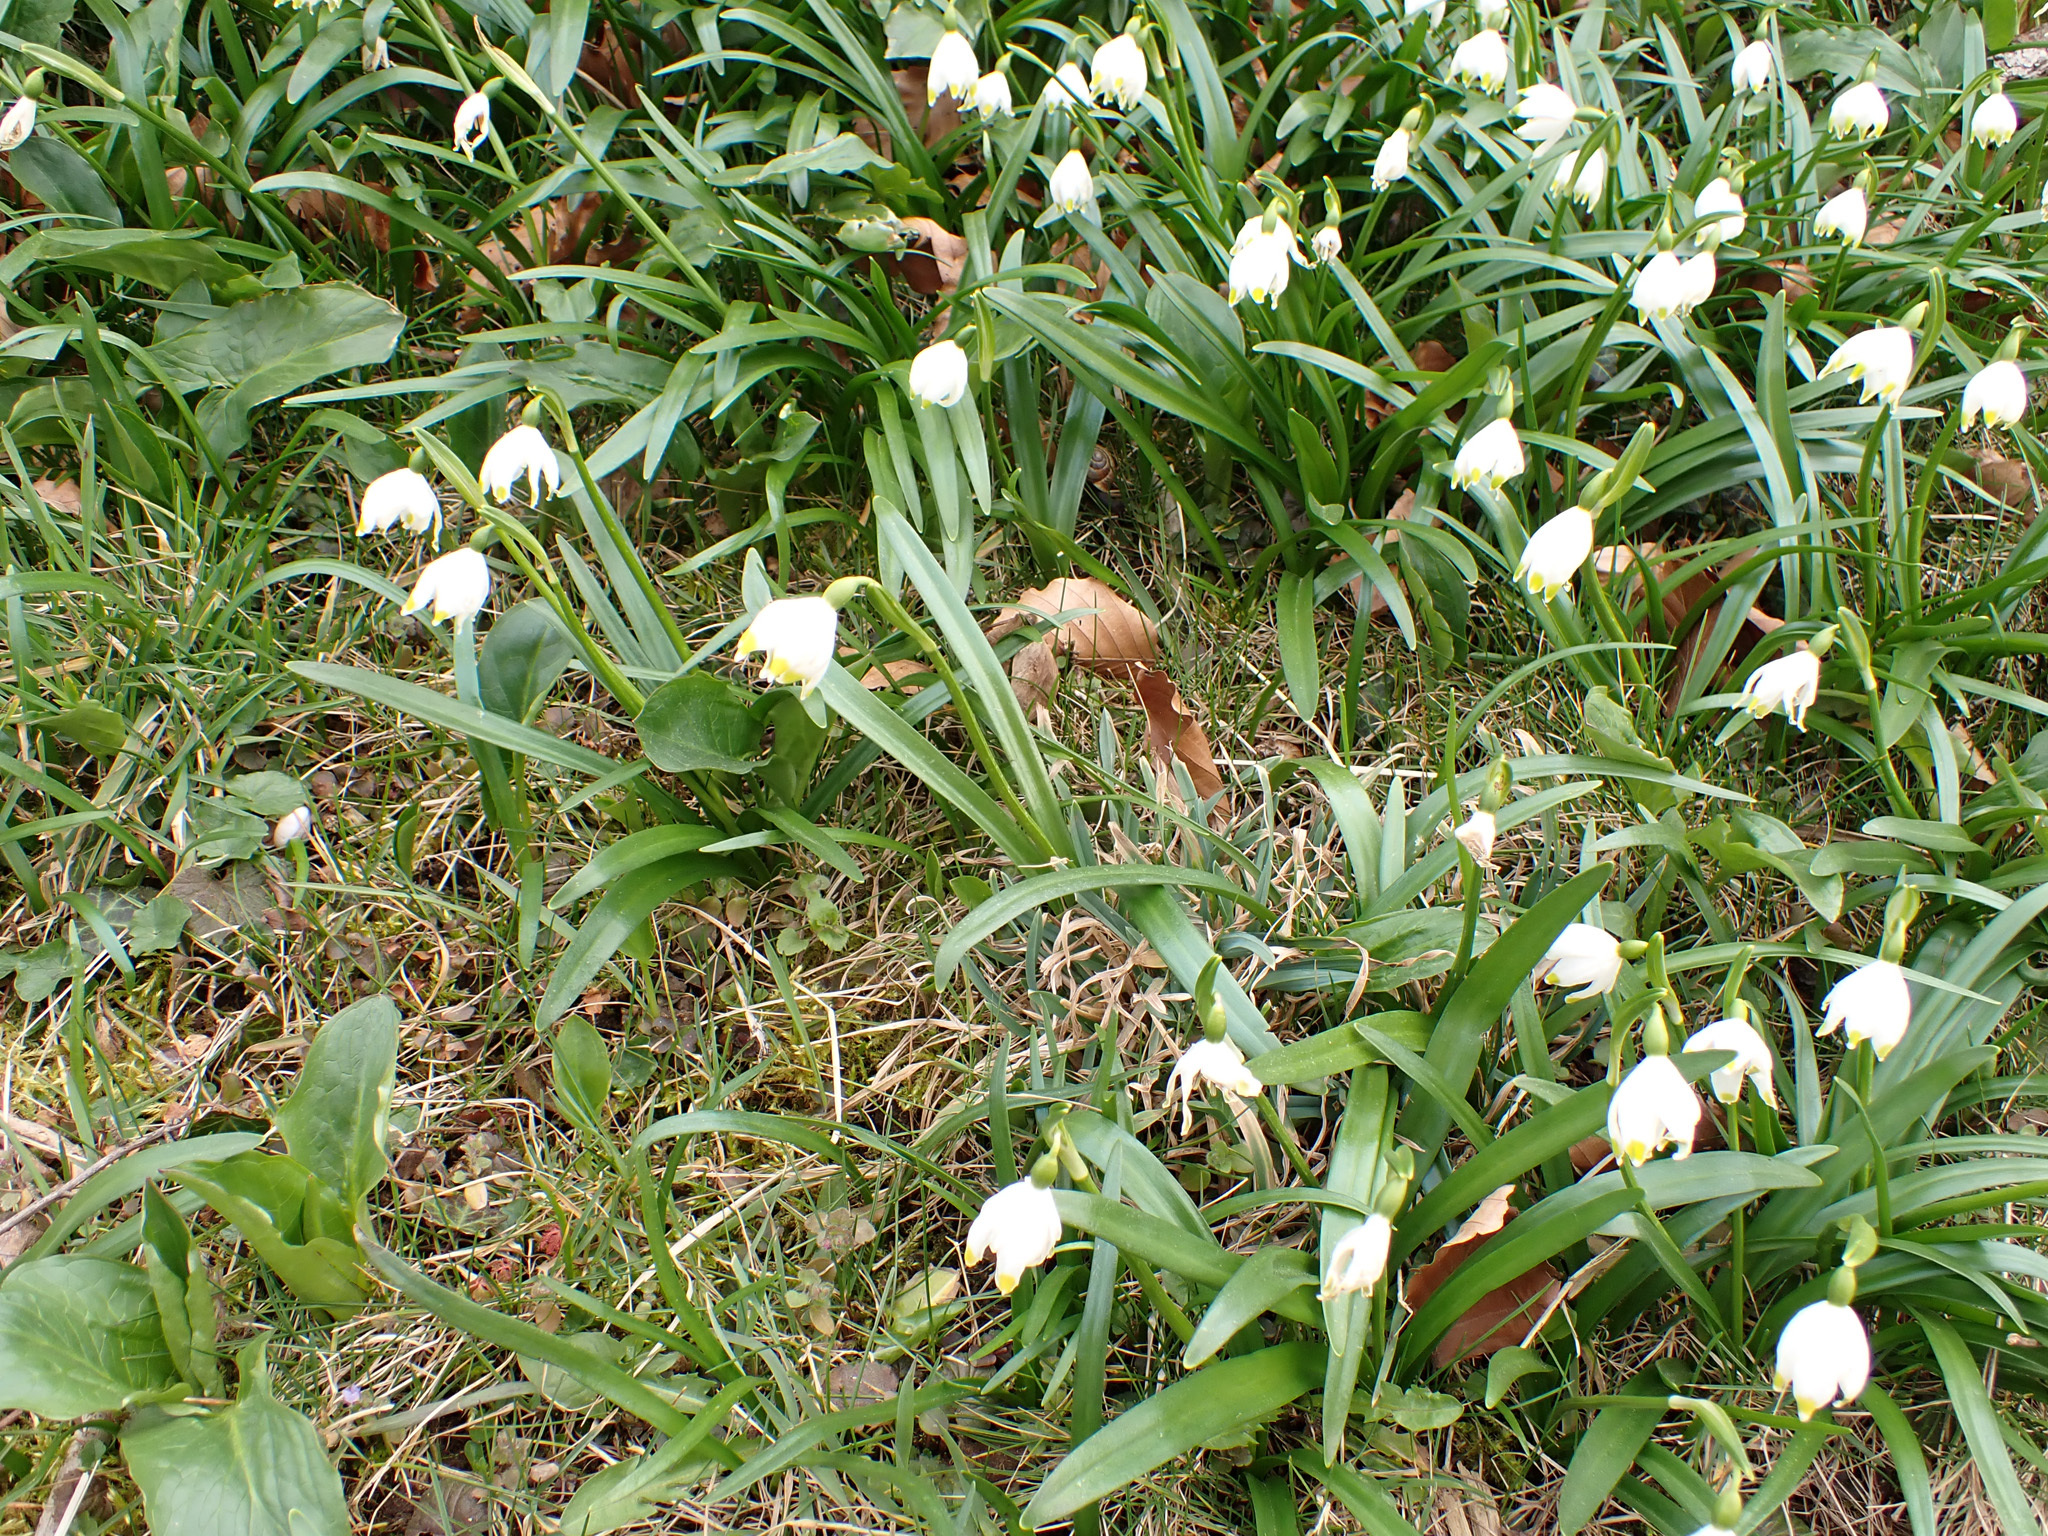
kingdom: Plantae
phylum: Tracheophyta
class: Liliopsida
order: Asparagales
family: Amaryllidaceae
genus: Leucojum
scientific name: Leucojum vernum
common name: Spring snowflake
